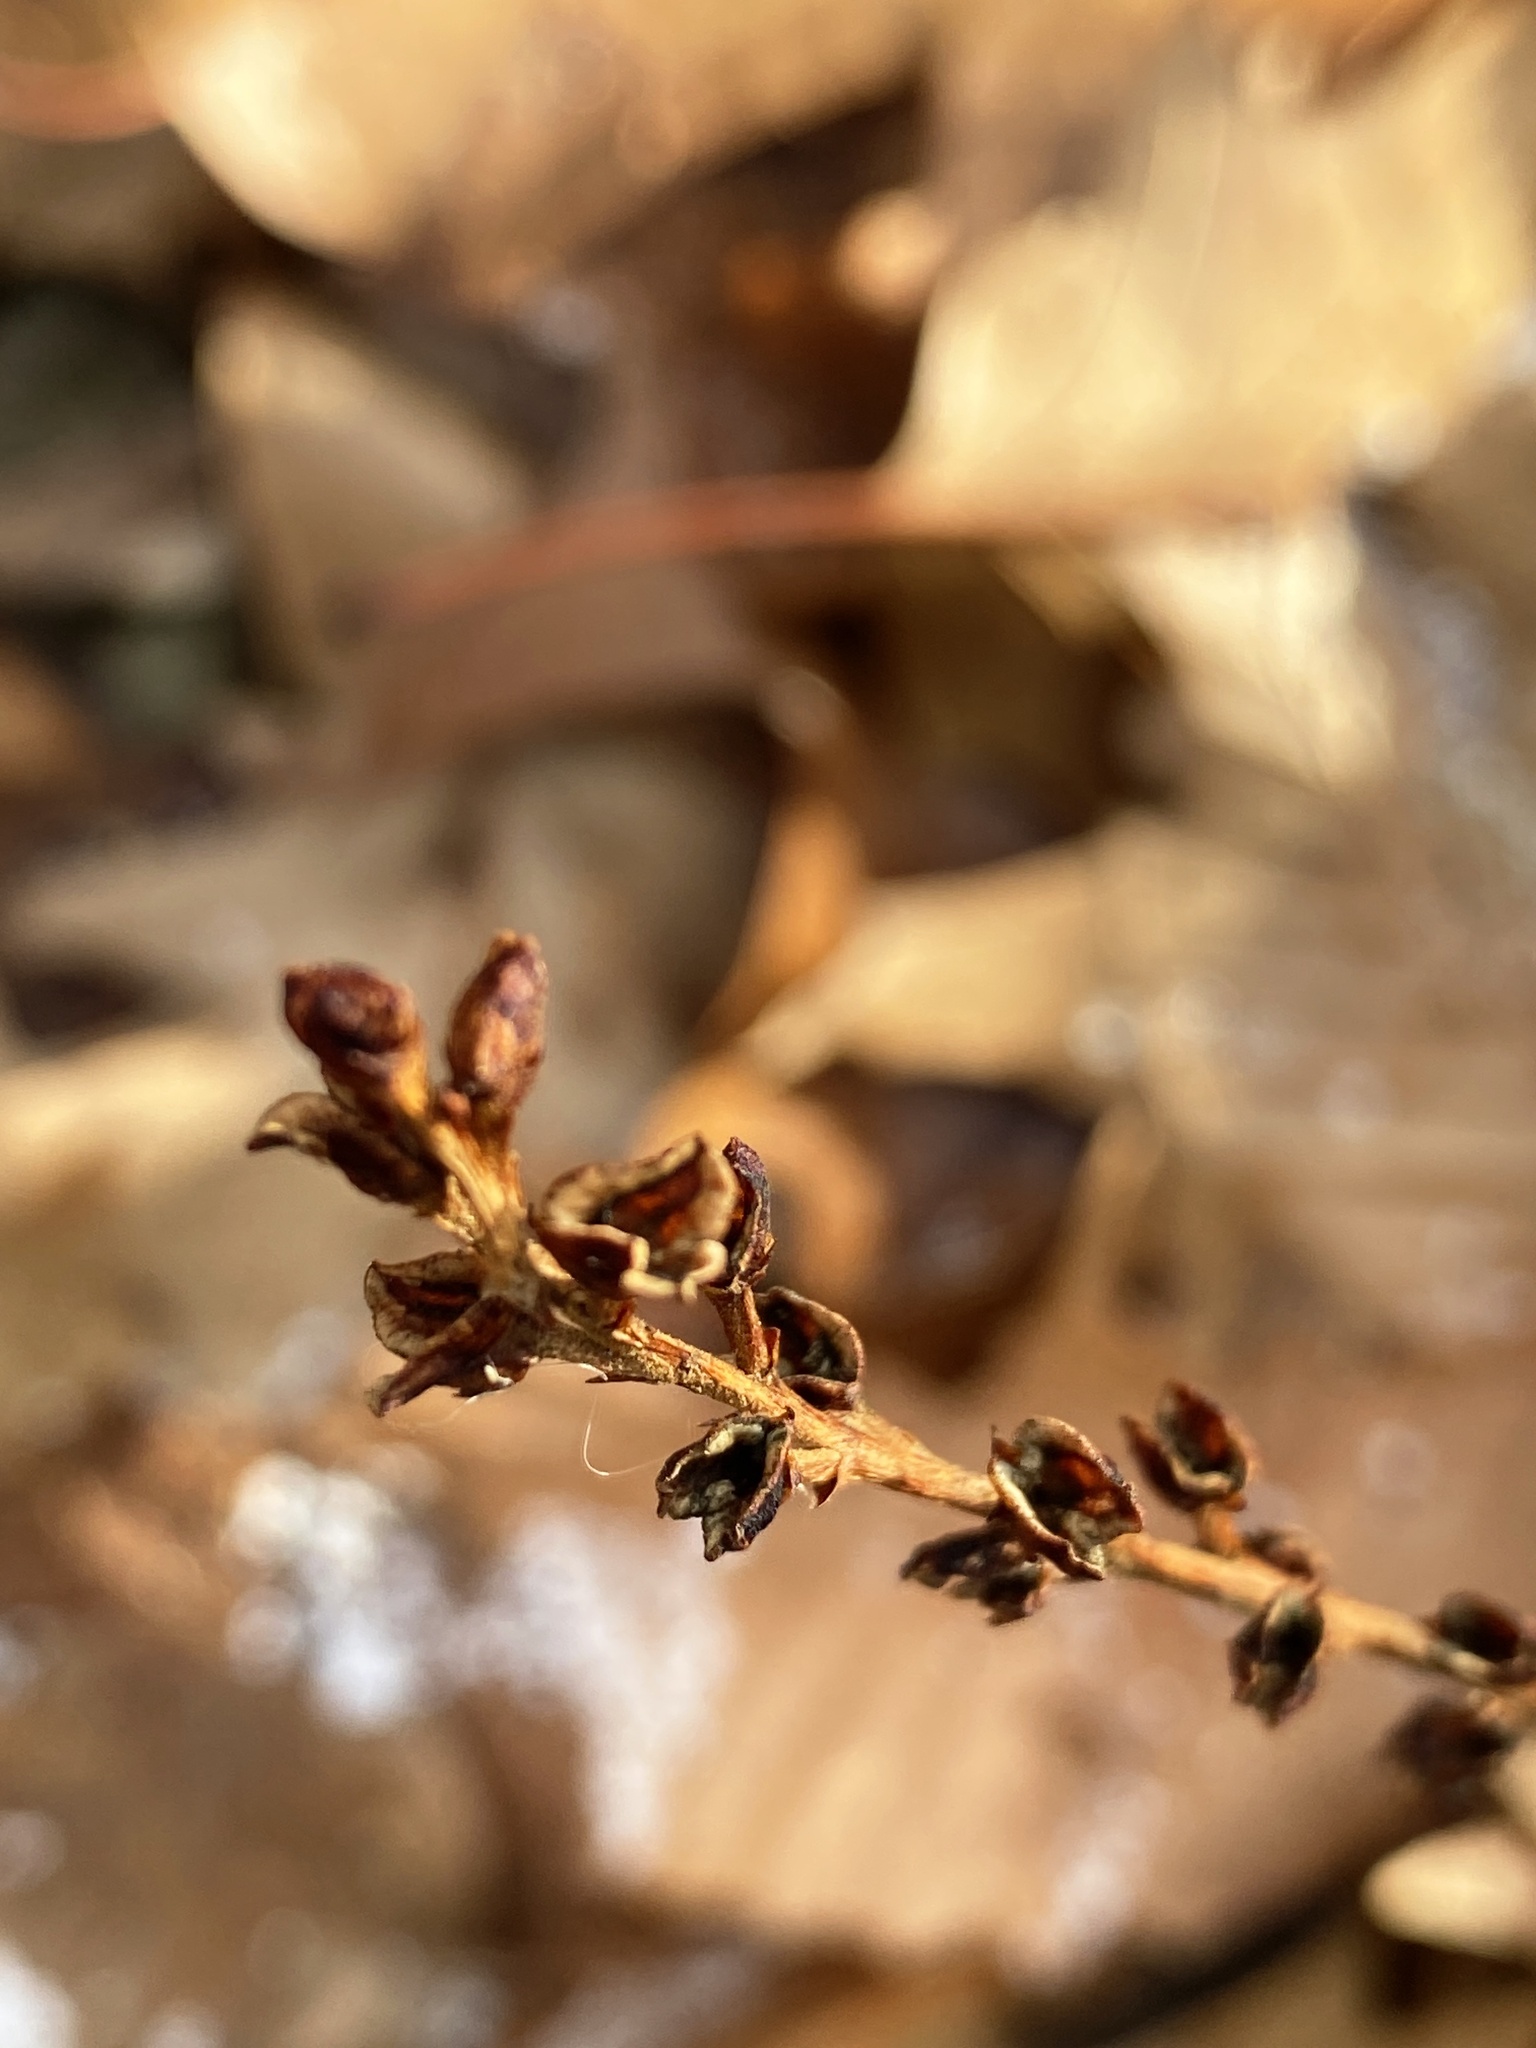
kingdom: Plantae
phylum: Tracheophyta
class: Magnoliopsida
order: Lamiales
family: Orobanchaceae
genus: Epifagus
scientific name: Epifagus virginiana
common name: Beechdrops
